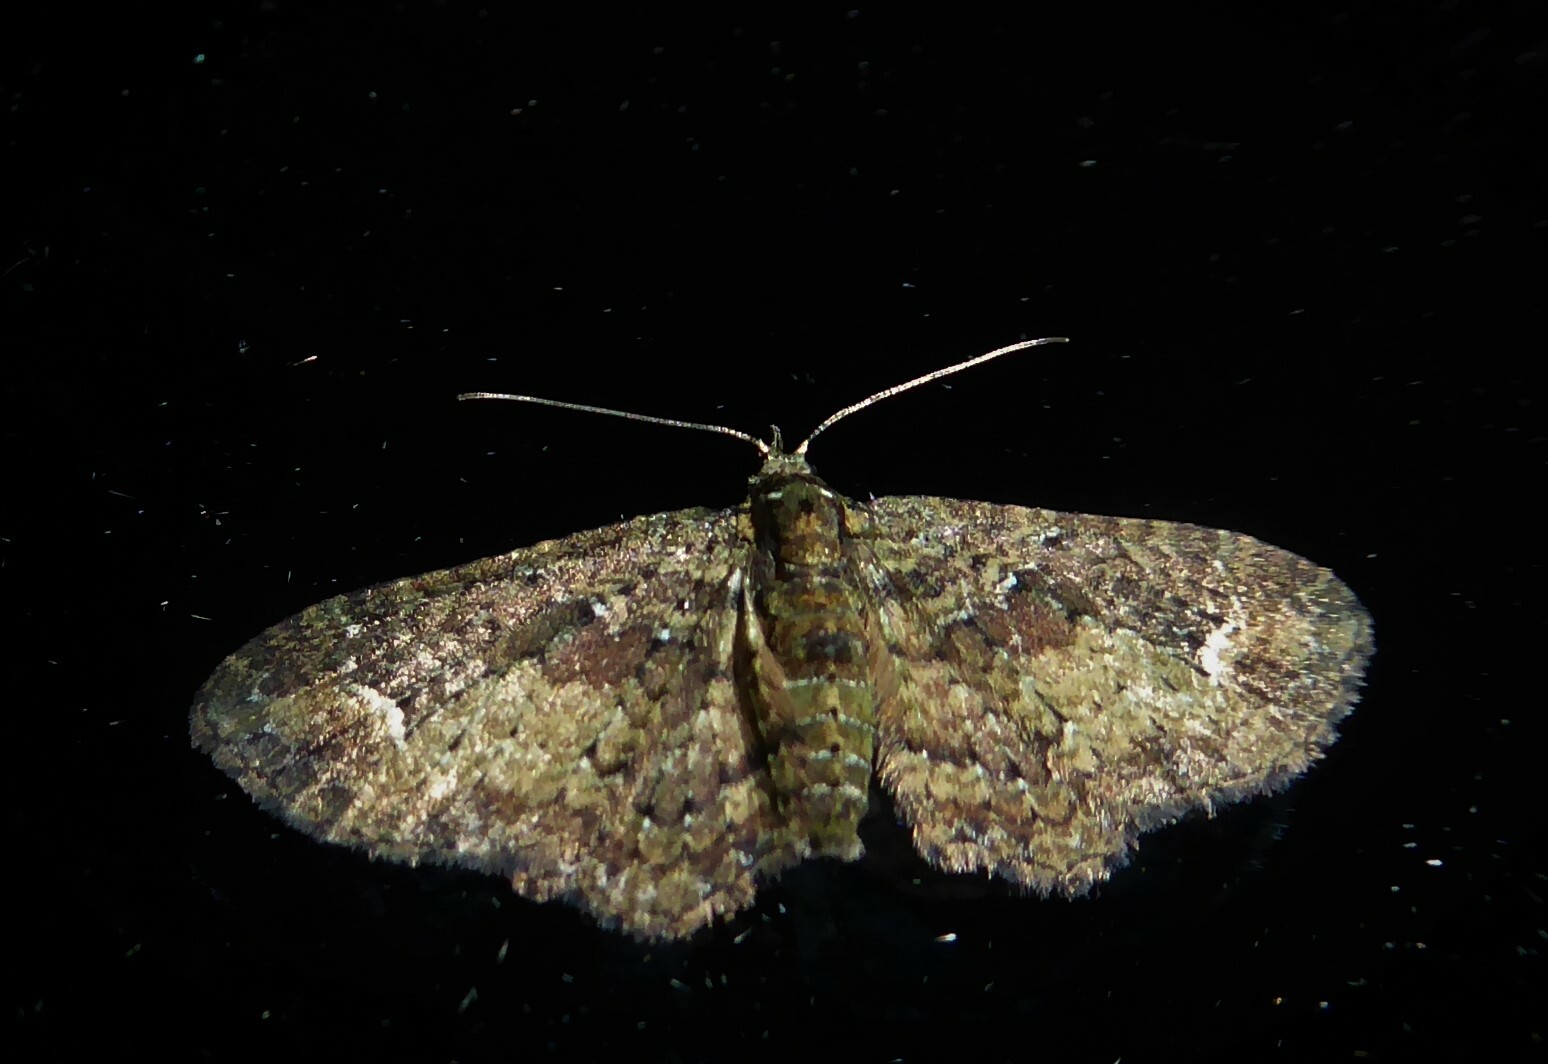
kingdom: Animalia
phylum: Arthropoda
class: Insecta
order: Lepidoptera
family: Geometridae
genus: Pasiphilodes
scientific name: Pasiphilodes testulata
